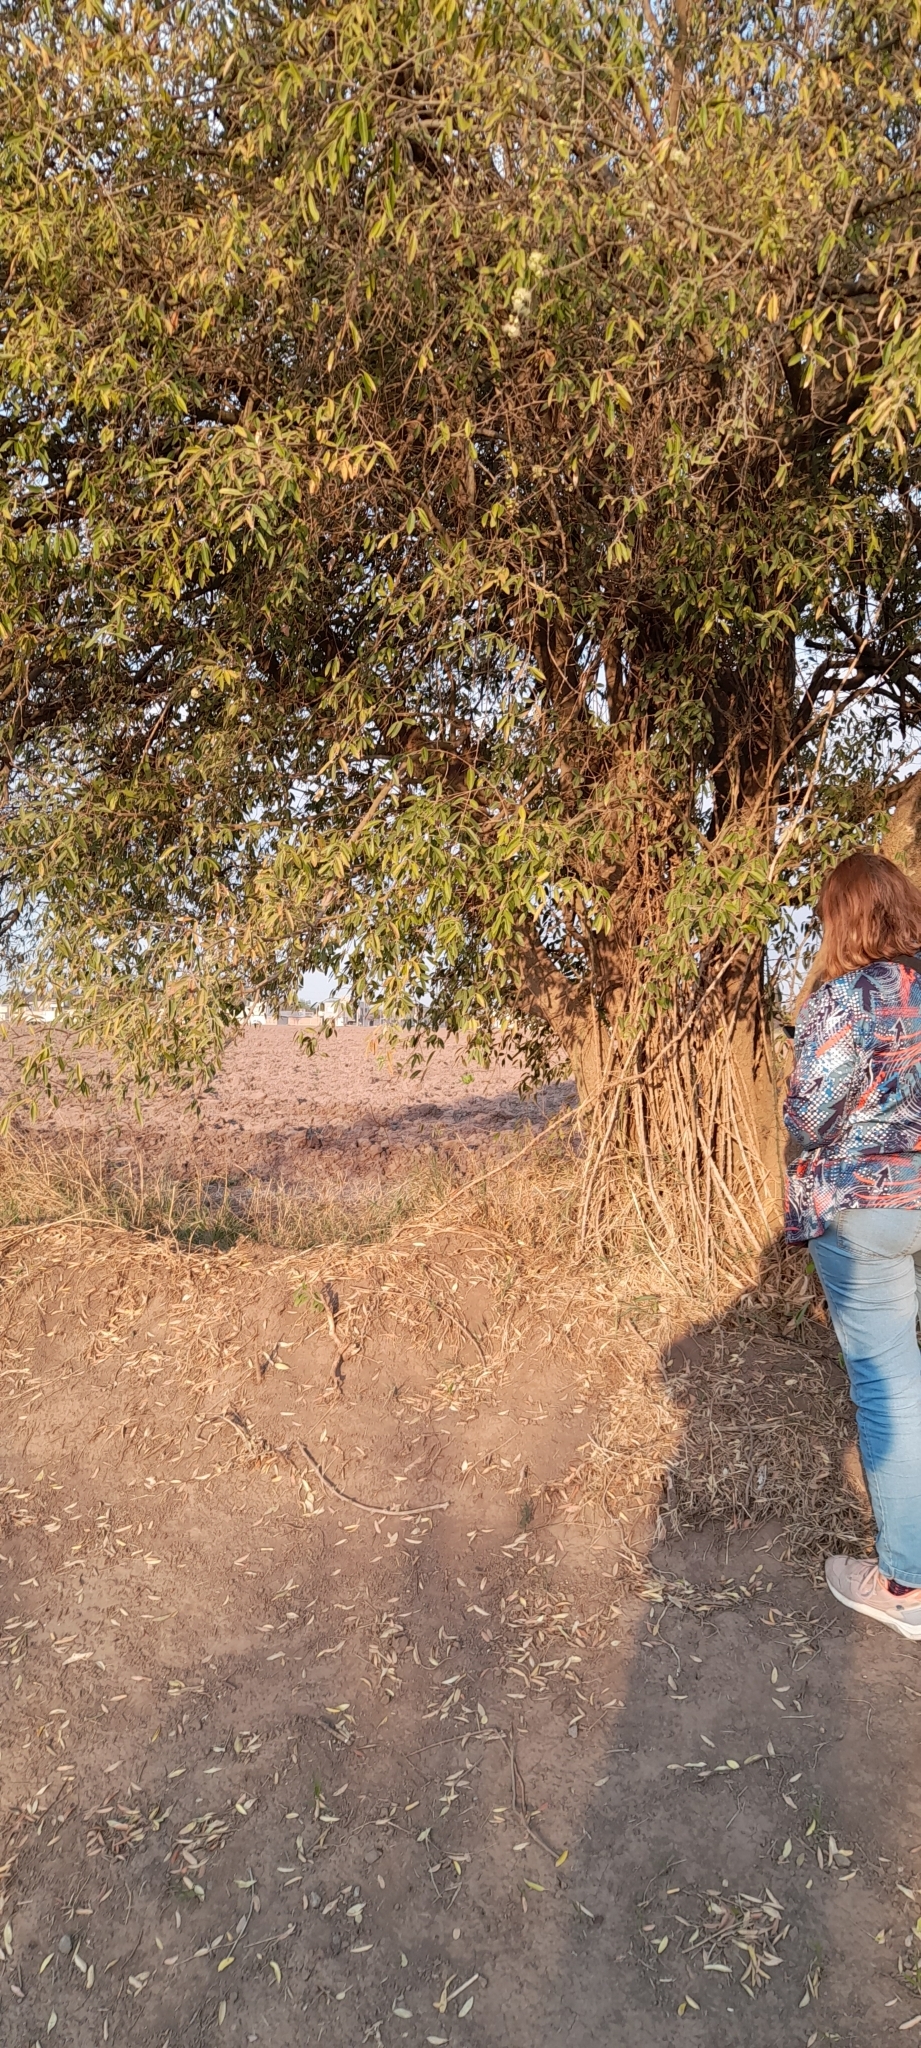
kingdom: Plantae
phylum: Tracheophyta
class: Magnoliopsida
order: Myrtales
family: Myrtaceae
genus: Eugenia
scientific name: Eugenia myrcianthes
